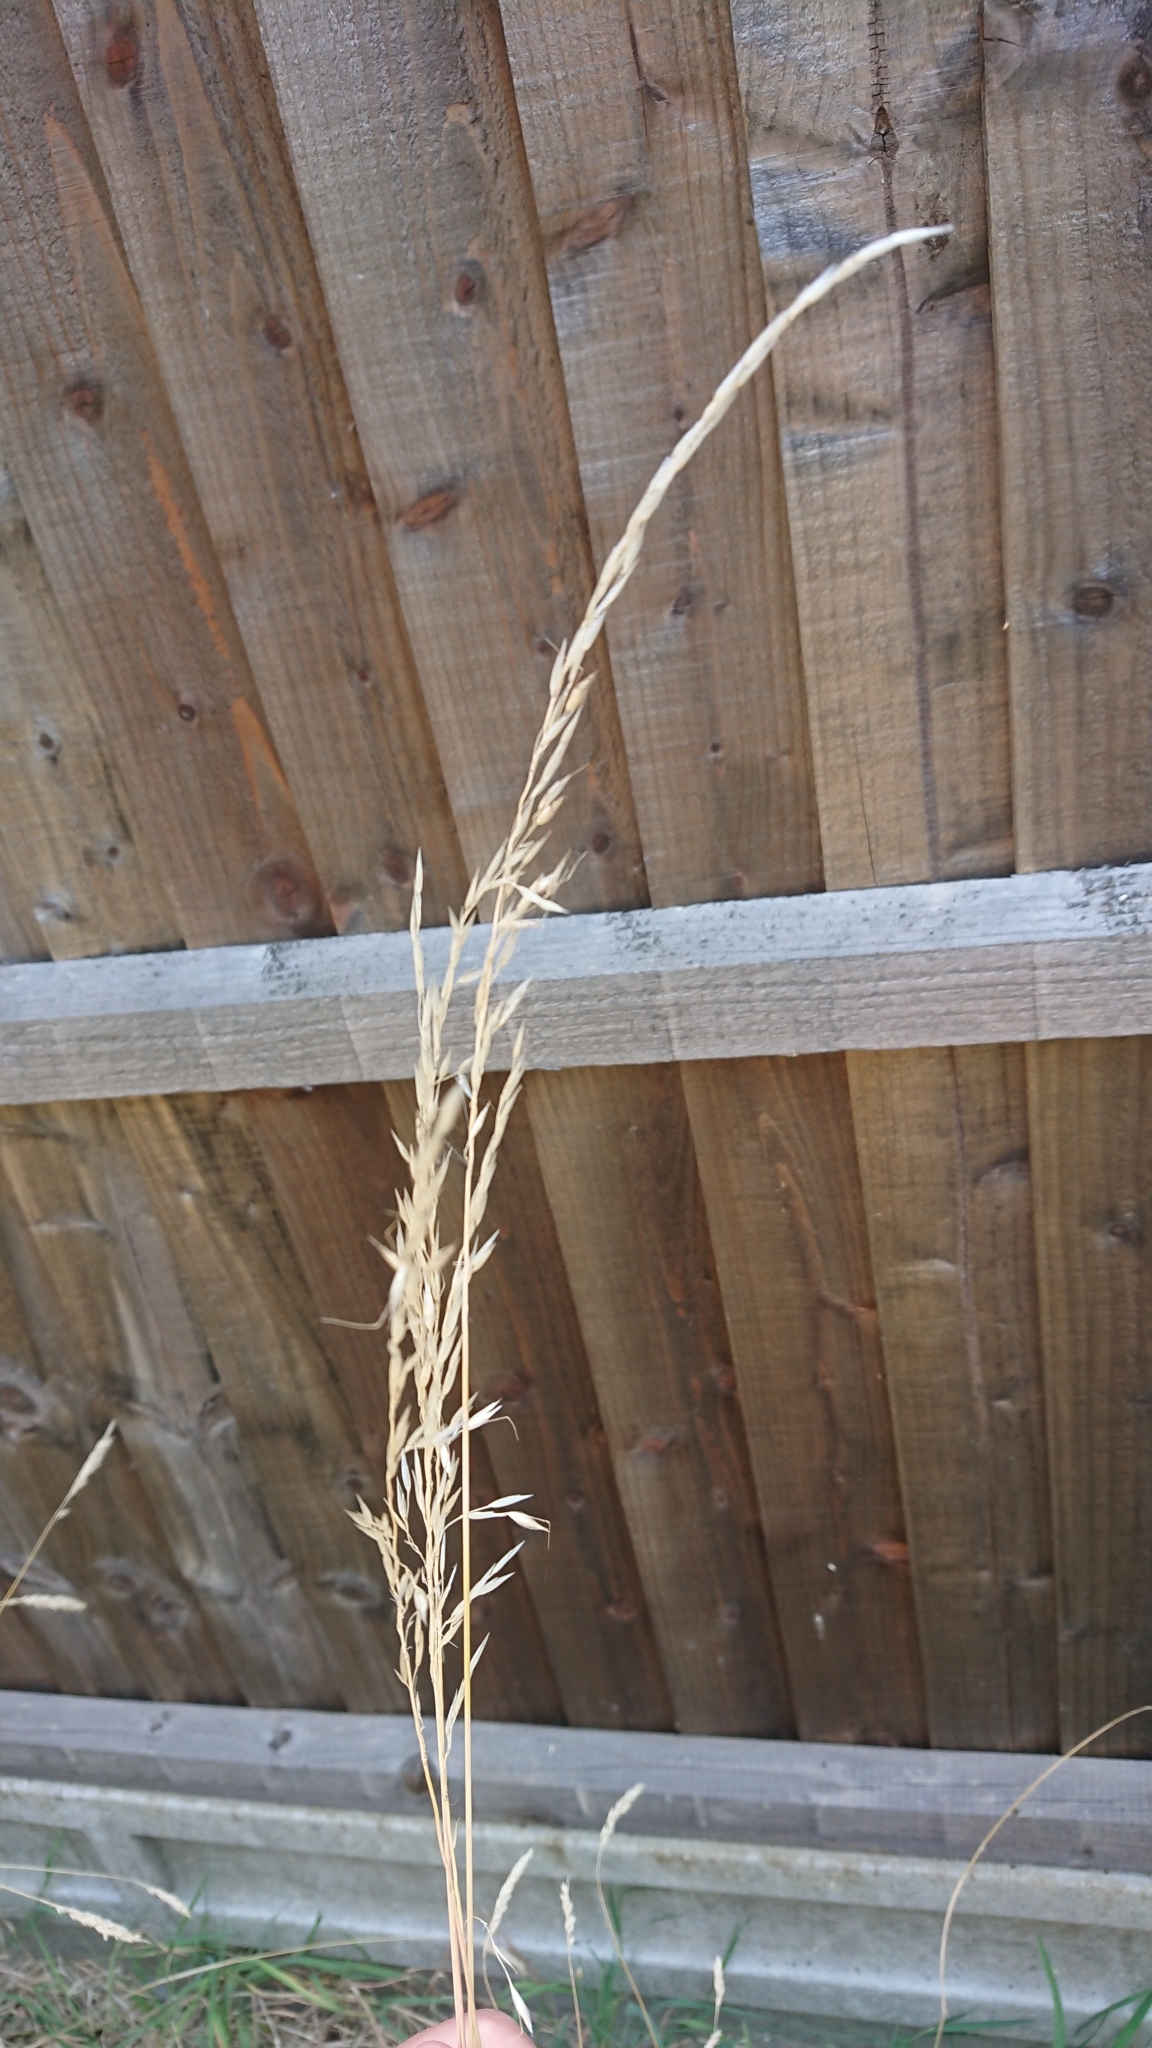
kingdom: Plantae
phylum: Tracheophyta
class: Liliopsida
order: Poales
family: Poaceae
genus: Arrhenatherum
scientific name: Arrhenatherum elatius
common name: Tall oatgrass
